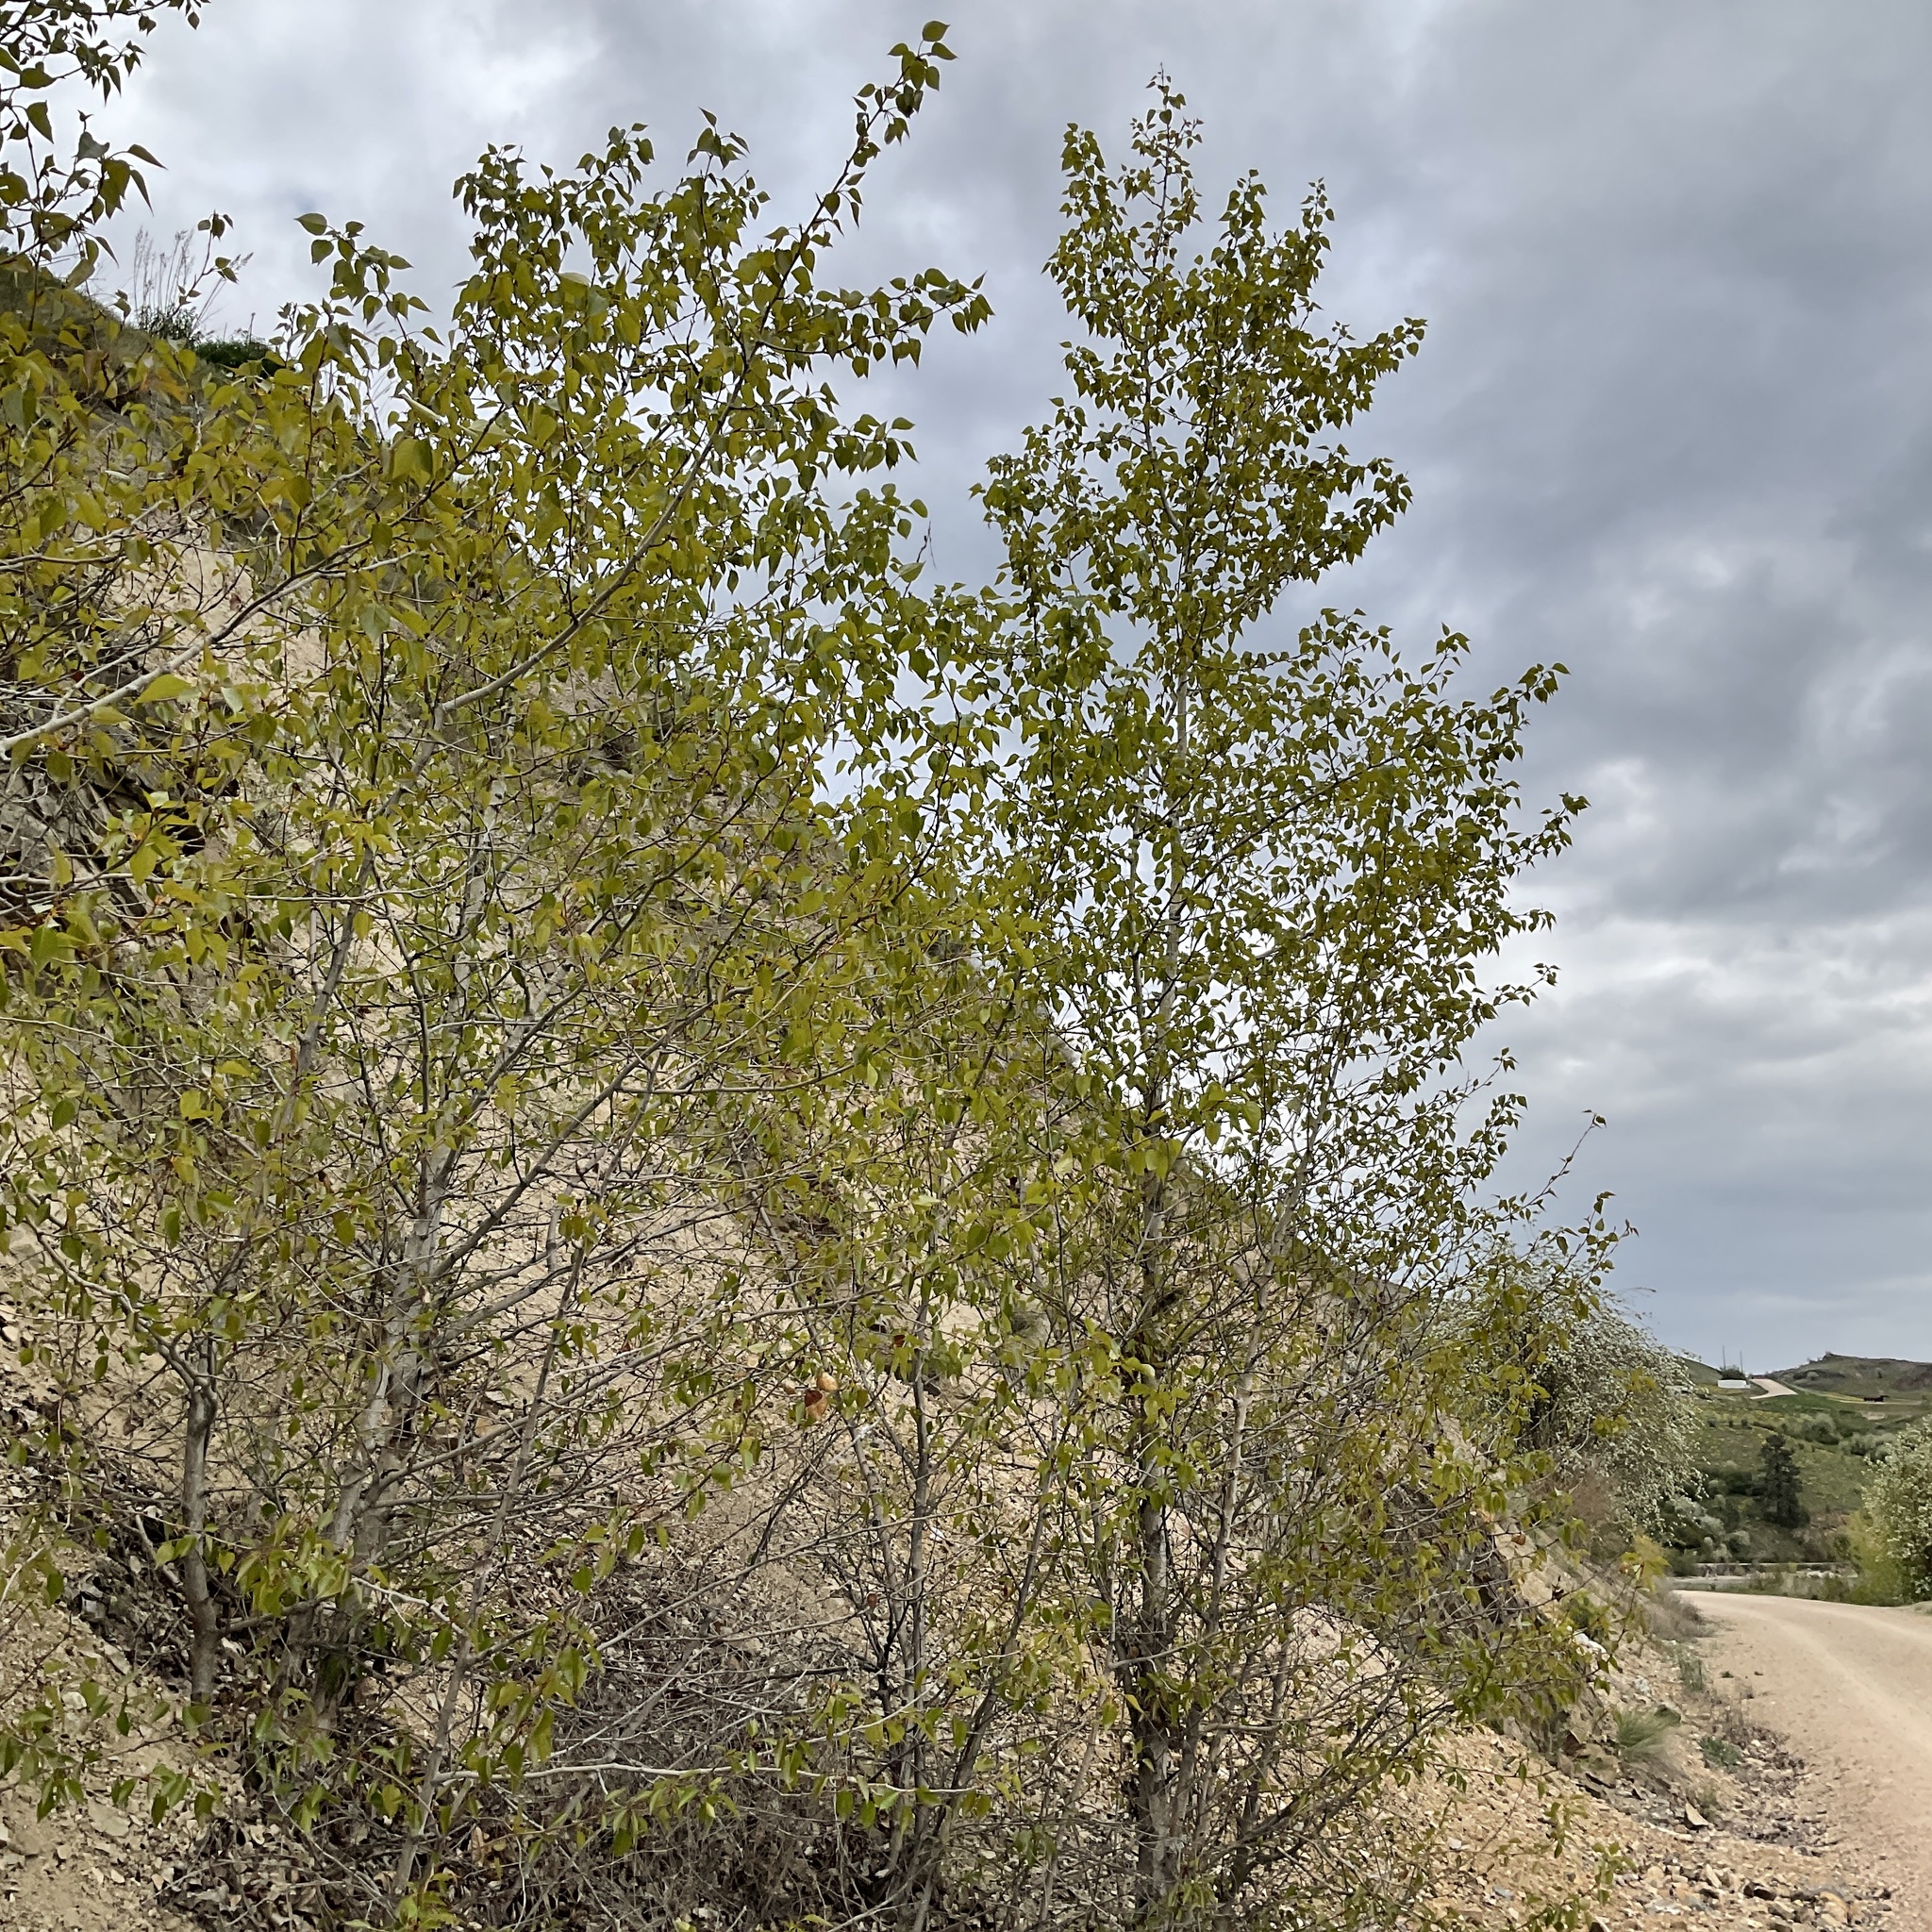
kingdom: Plantae
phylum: Tracheophyta
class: Magnoliopsida
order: Malpighiales
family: Salicaceae
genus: Populus
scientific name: Populus trichocarpa
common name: Black cottonwood
